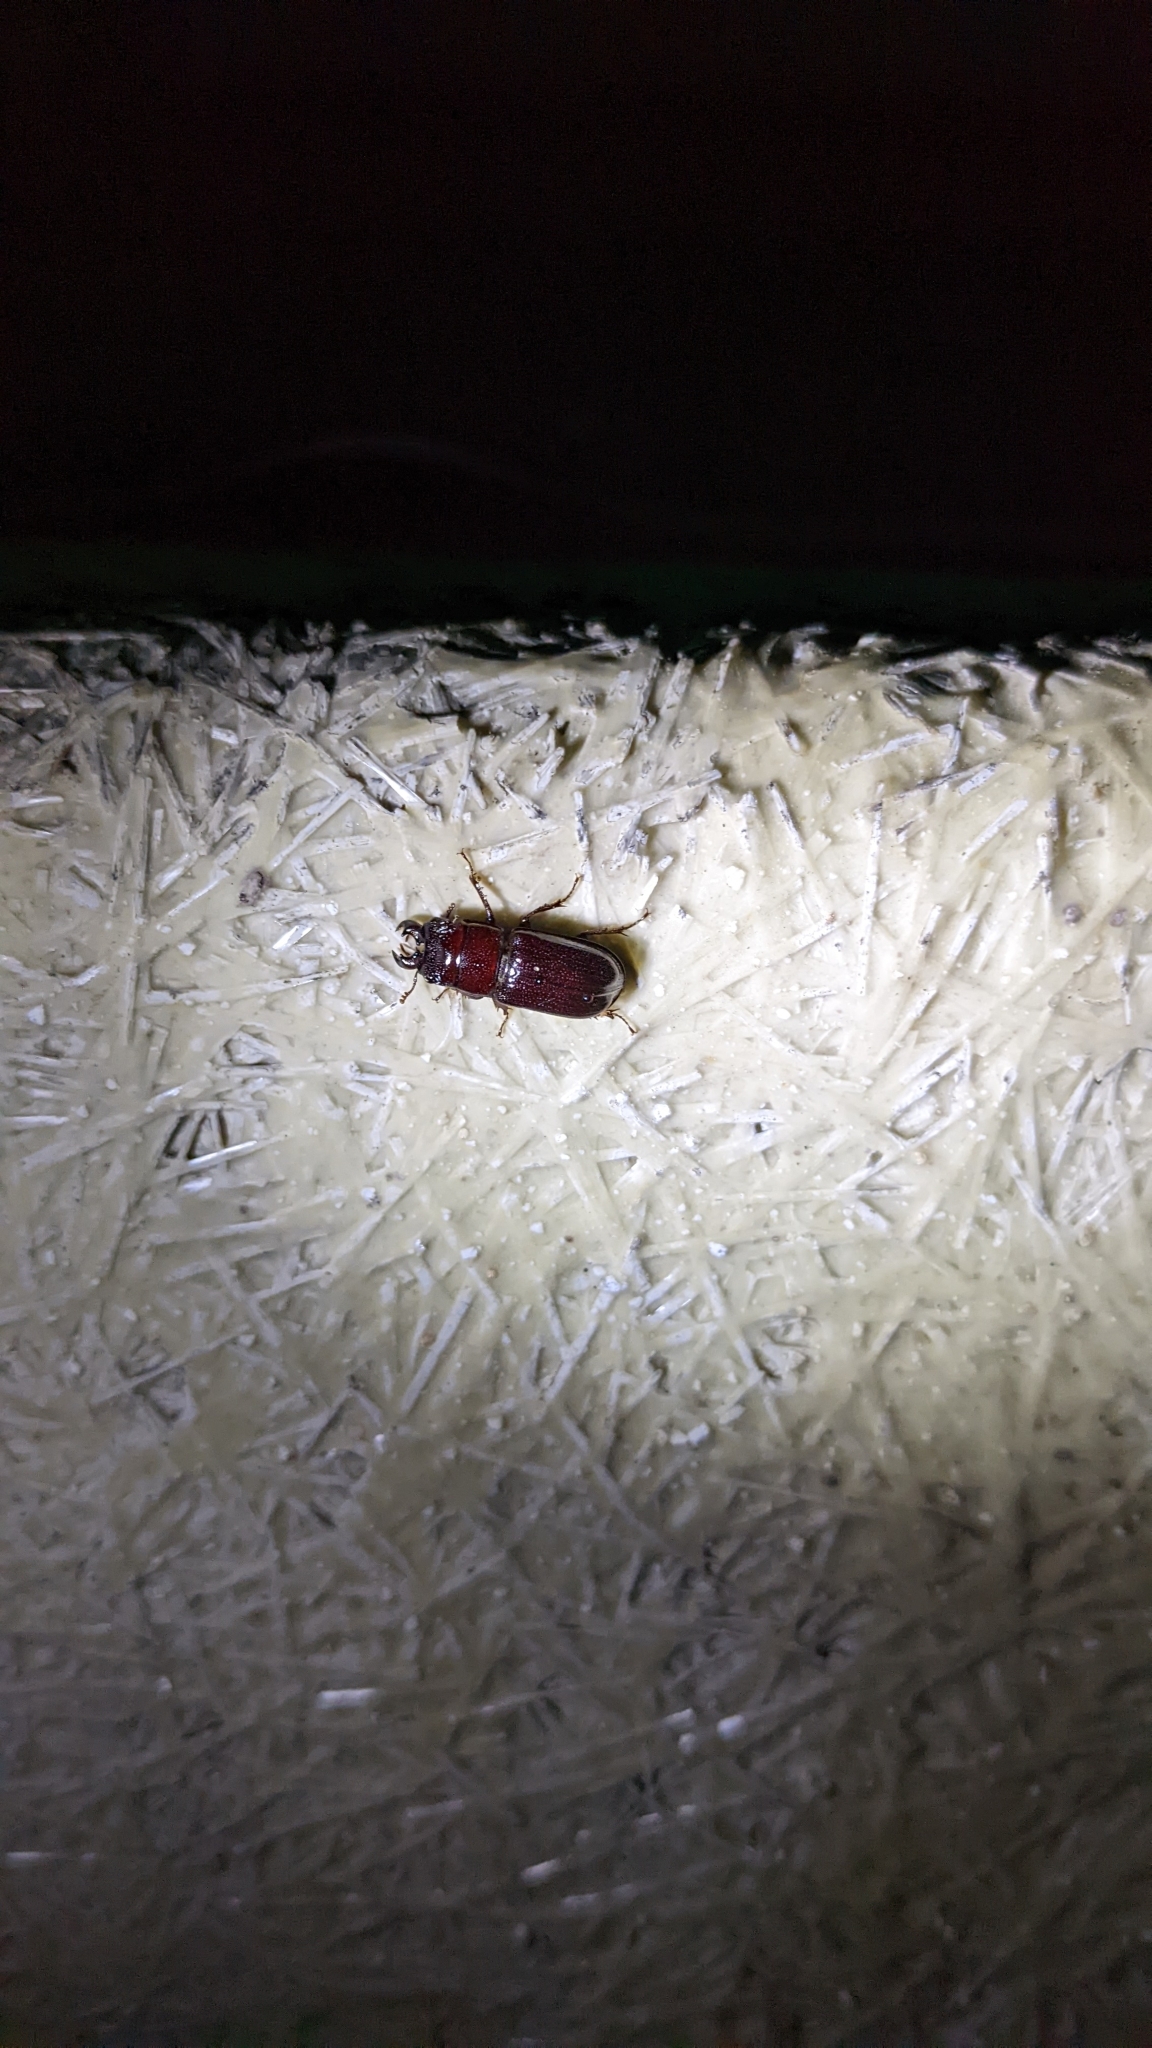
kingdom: Animalia
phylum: Arthropoda
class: Insecta
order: Coleoptera
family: Lucanidae
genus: Ceruchus
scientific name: Ceruchus piceus
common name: Red-rot decay stag beetle
